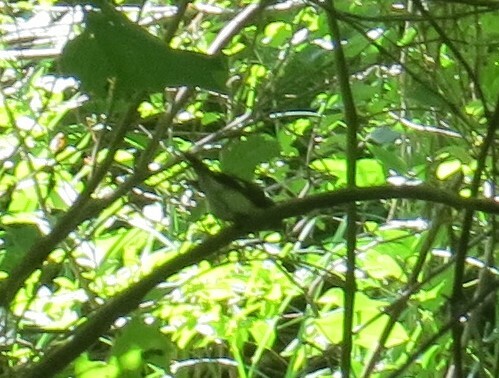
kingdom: Animalia
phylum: Chordata
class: Aves
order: Passeriformes
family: Parulidae
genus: Setophaga
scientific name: Setophaga ruticilla
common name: American redstart
